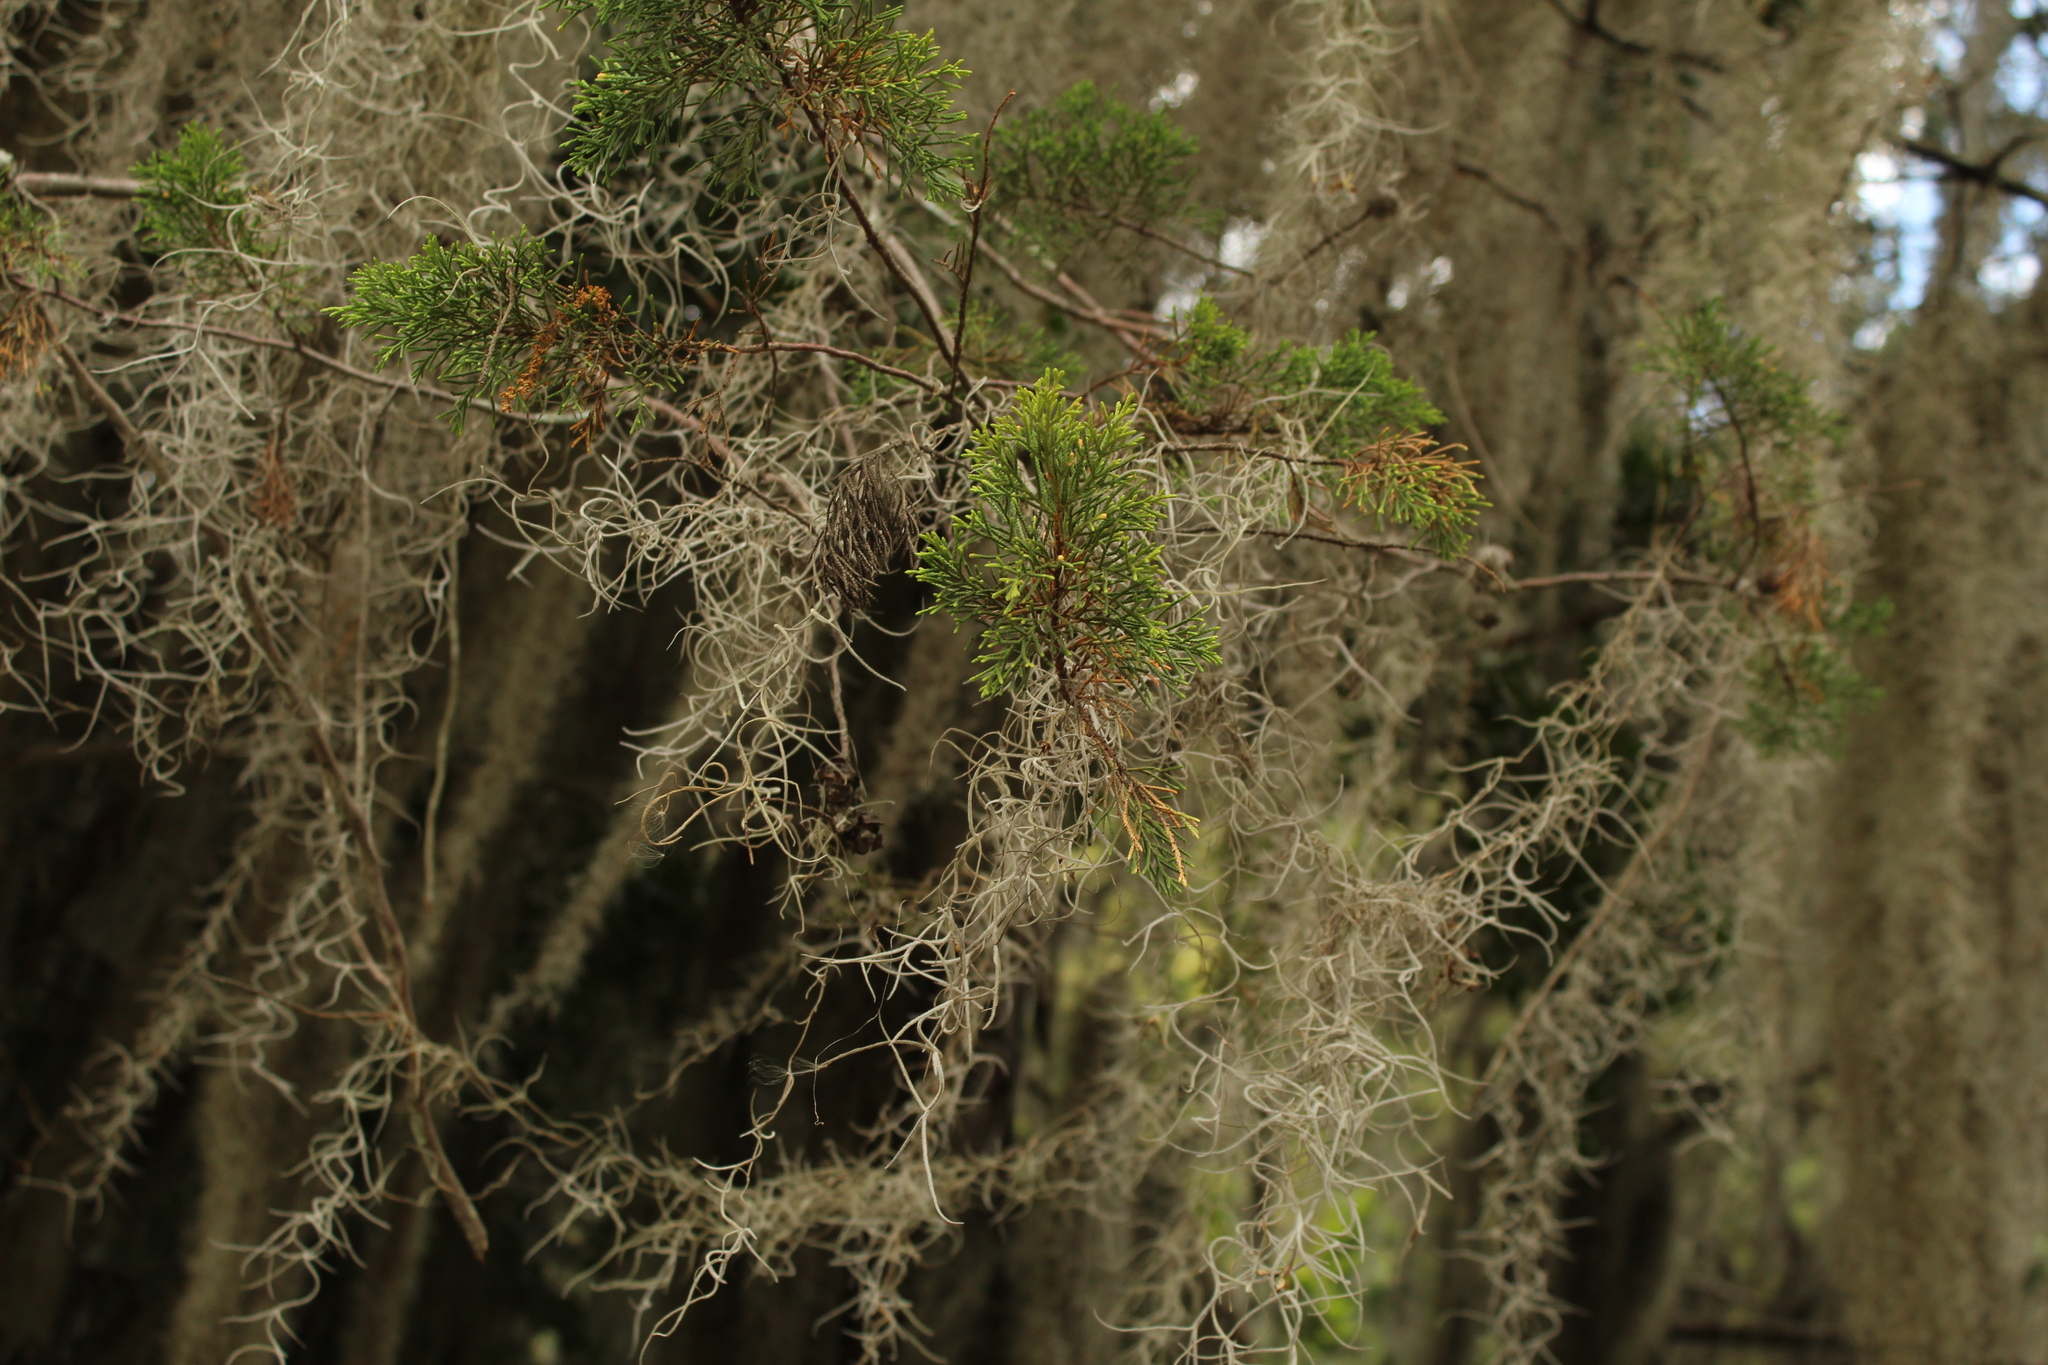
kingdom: Plantae
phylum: Tracheophyta
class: Liliopsida
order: Poales
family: Bromeliaceae
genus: Tillandsia
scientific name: Tillandsia usneoides
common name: Spanish moss
